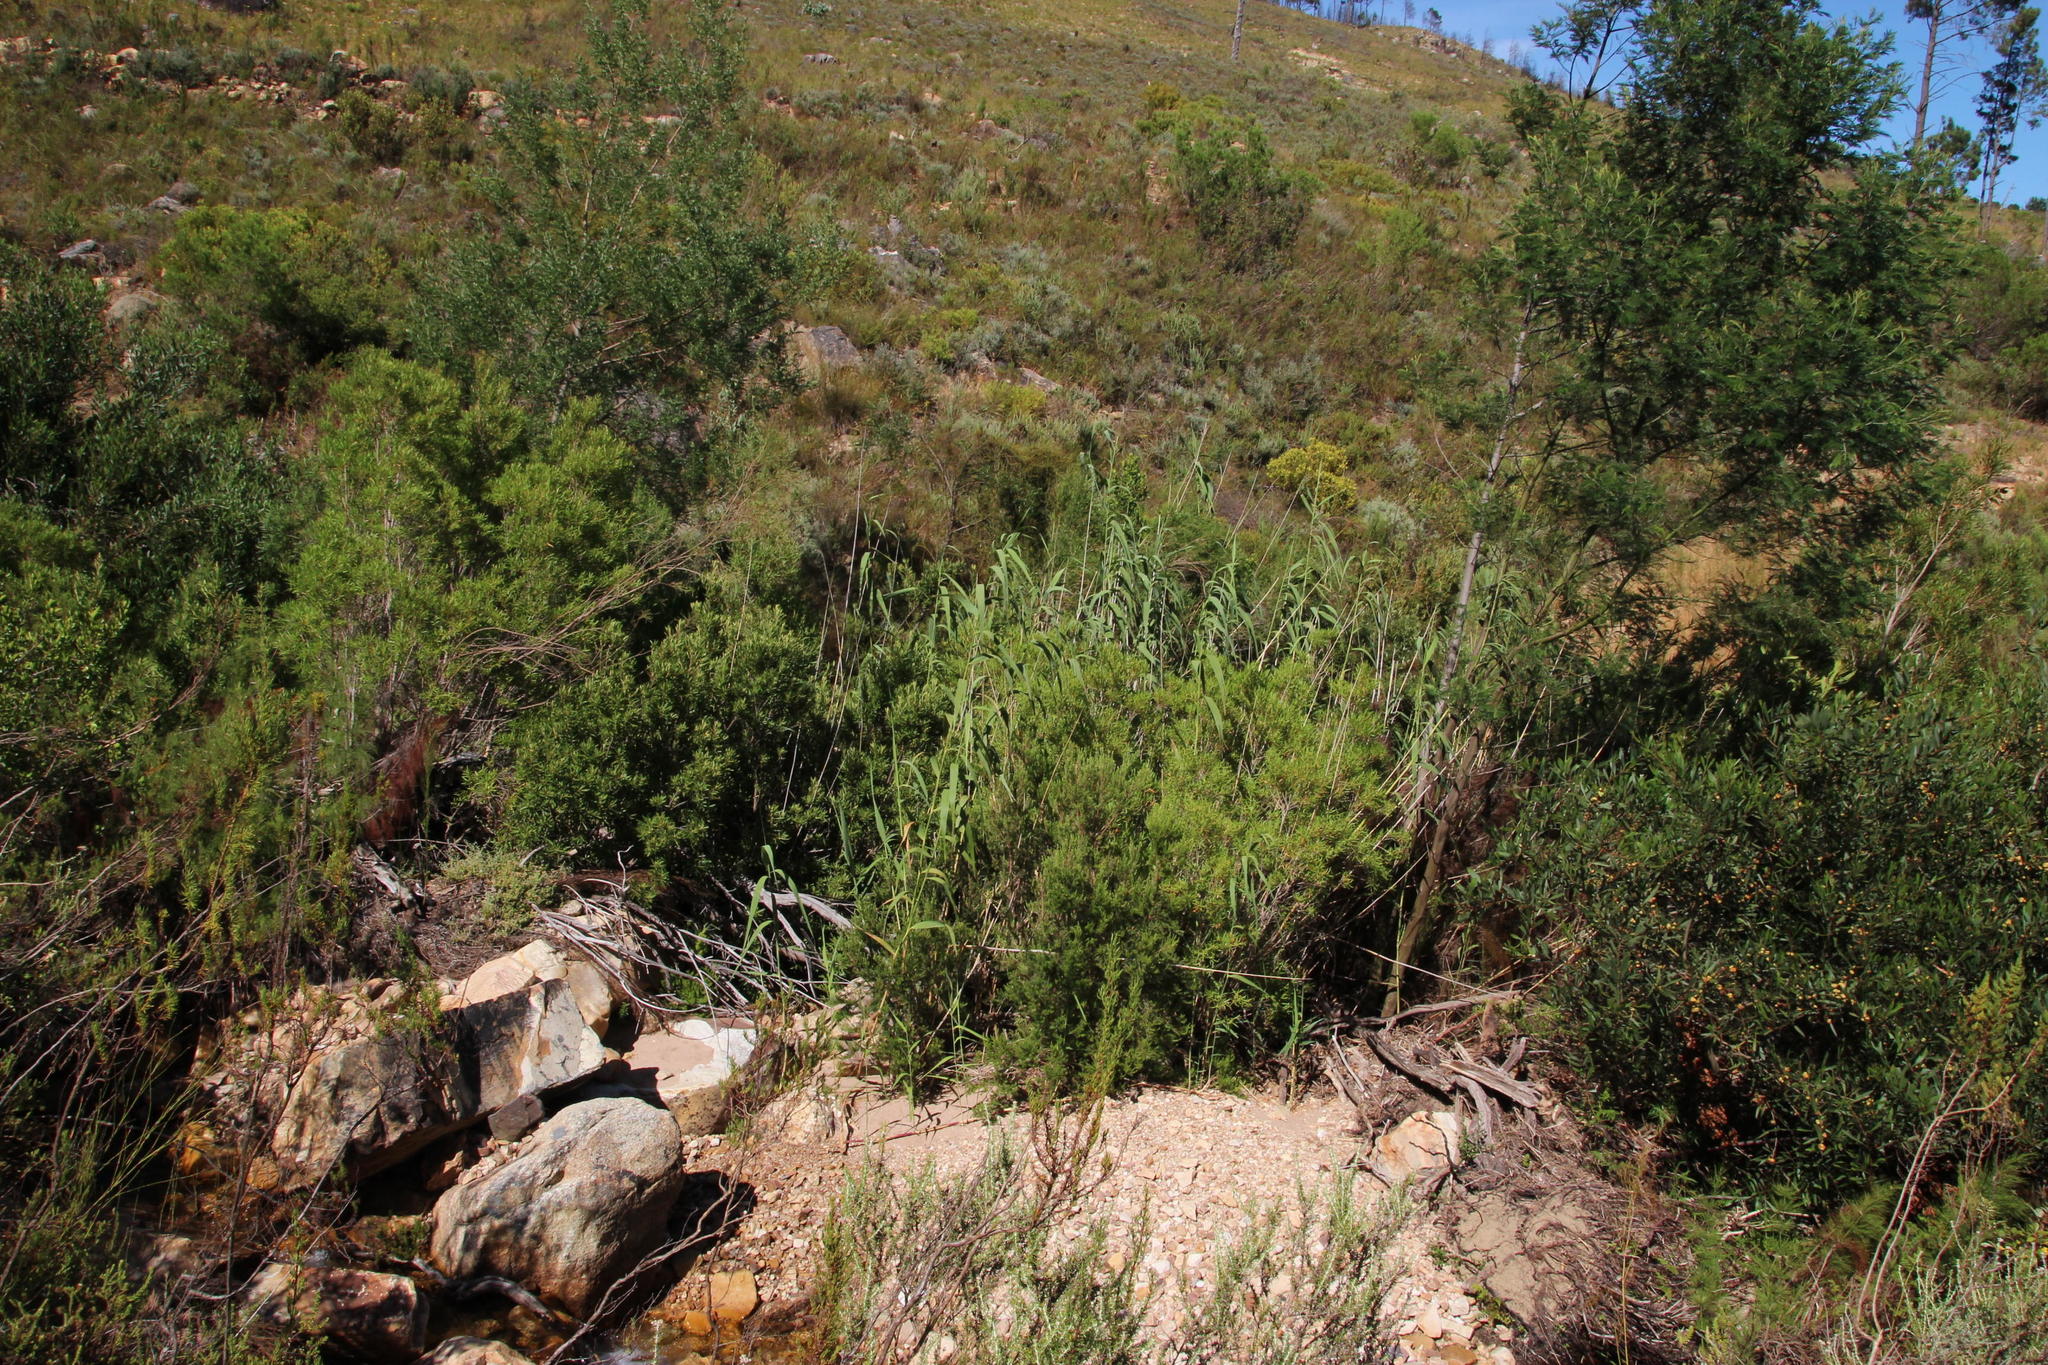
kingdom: Plantae
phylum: Tracheophyta
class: Liliopsida
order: Poales
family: Poaceae
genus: Phragmites
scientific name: Phragmites australis
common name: Common reed
